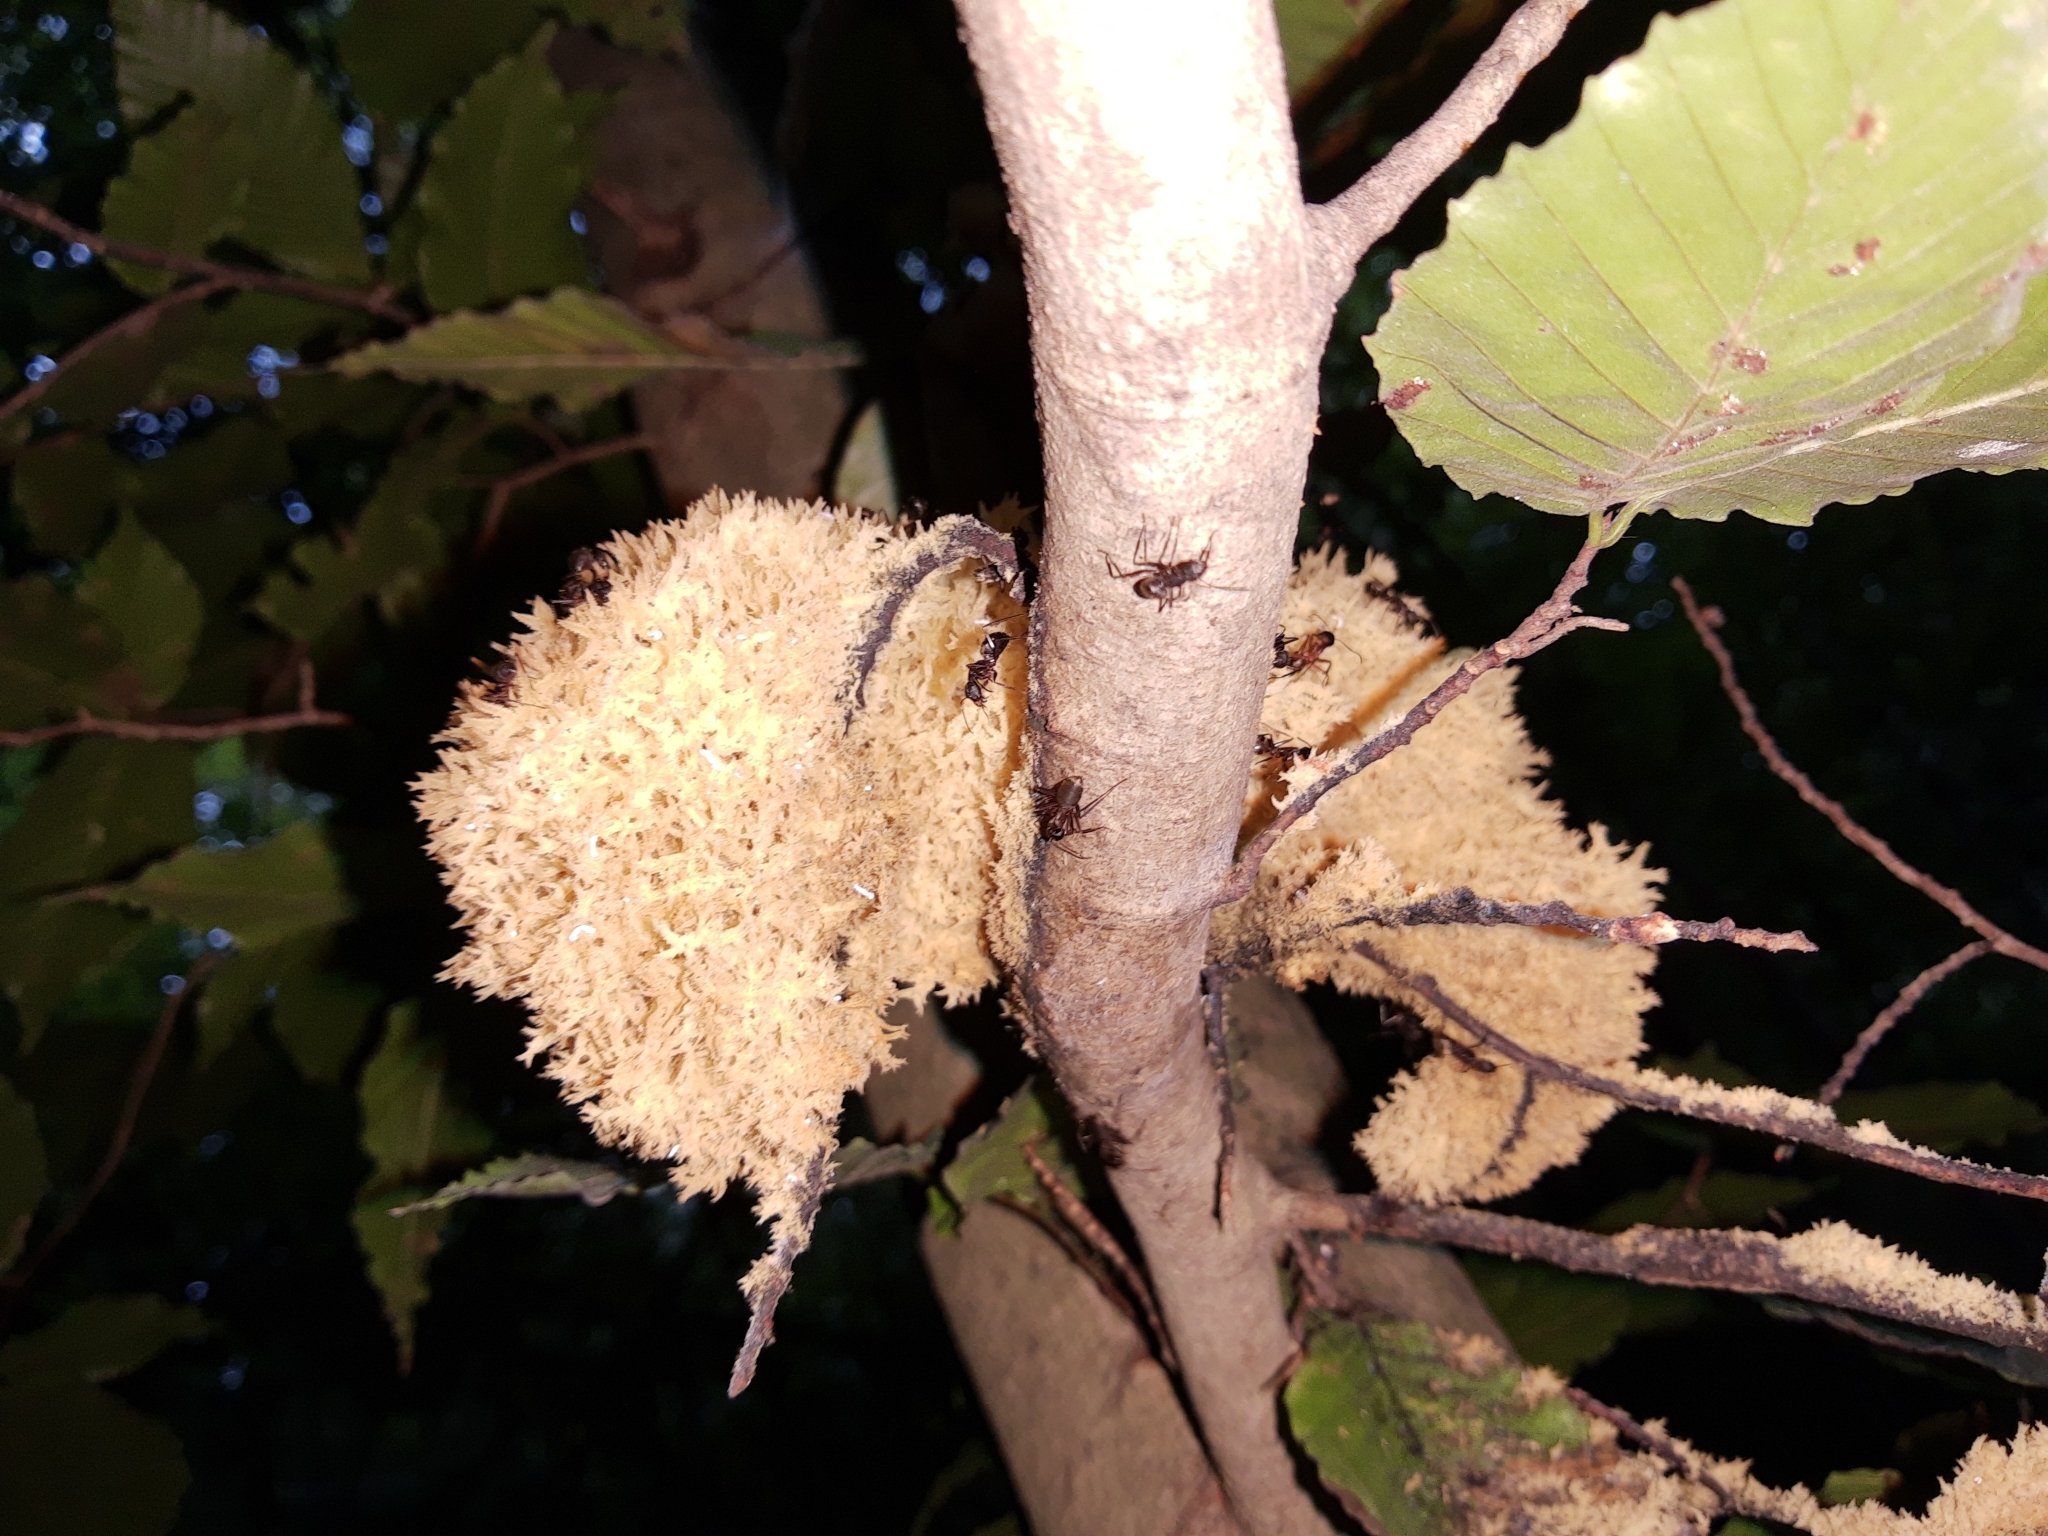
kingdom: Fungi
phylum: Ascomycota
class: Dothideomycetes
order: Capnodiales
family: Capnodiaceae
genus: Scorias
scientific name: Scorias spongiosa
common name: Black sooty mold
